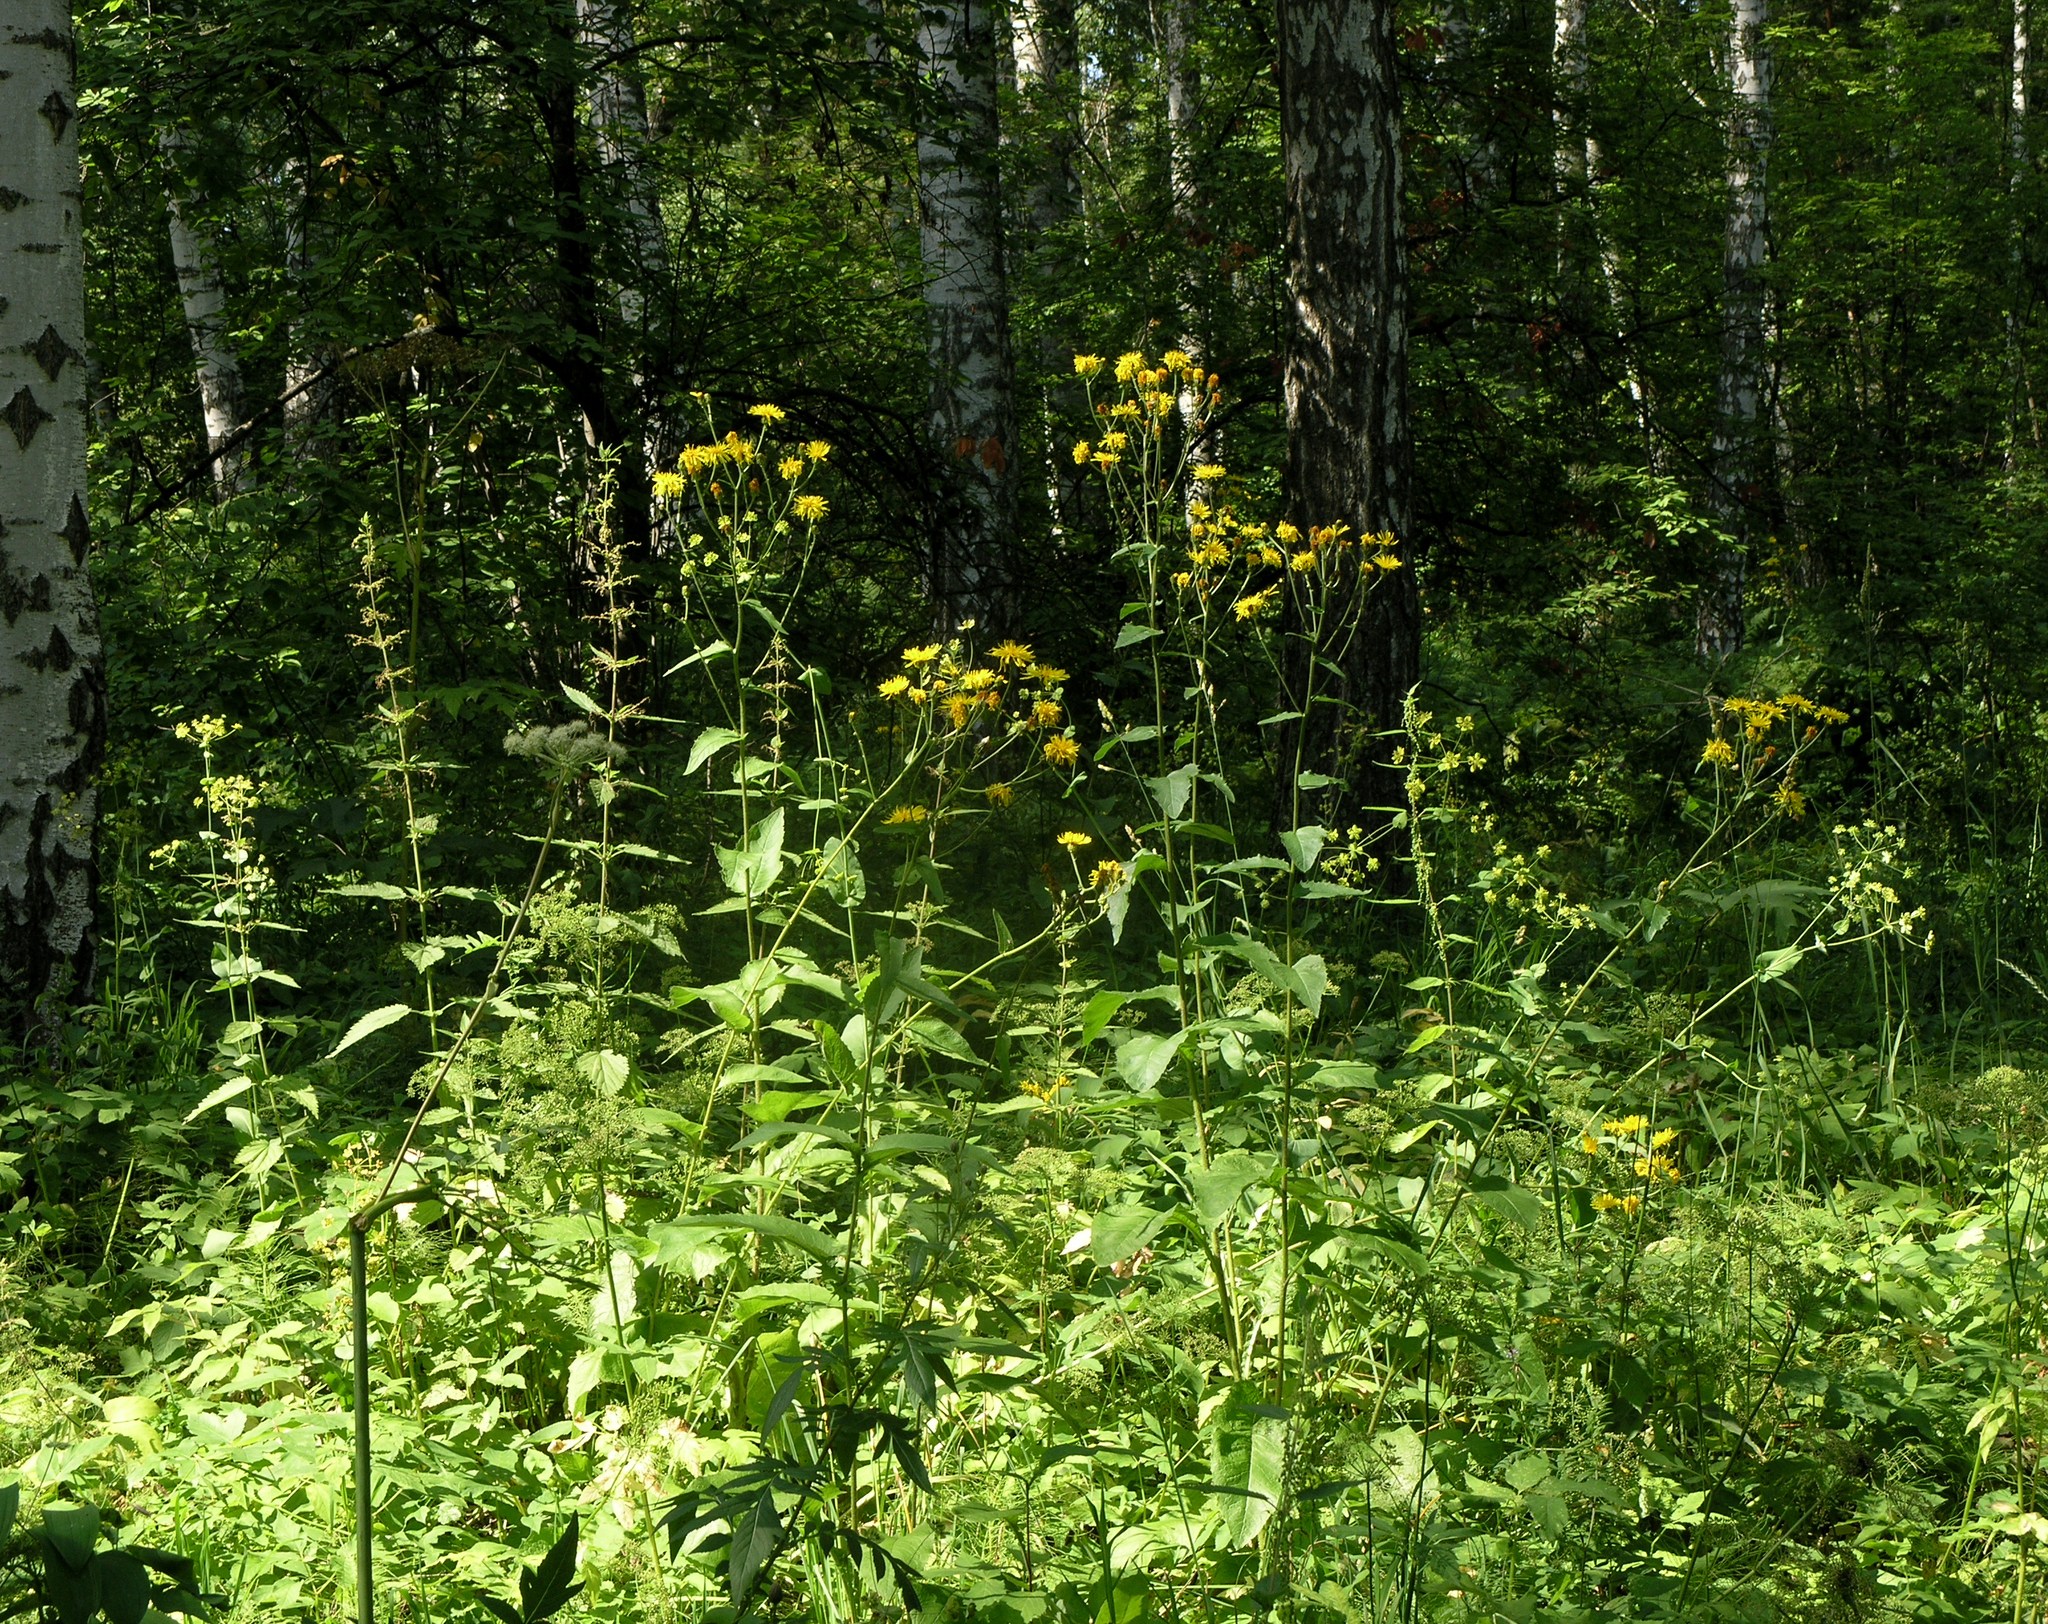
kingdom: Plantae
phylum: Tracheophyta
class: Magnoliopsida
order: Asterales
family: Asteraceae
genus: Crepis
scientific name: Crepis sibirica
